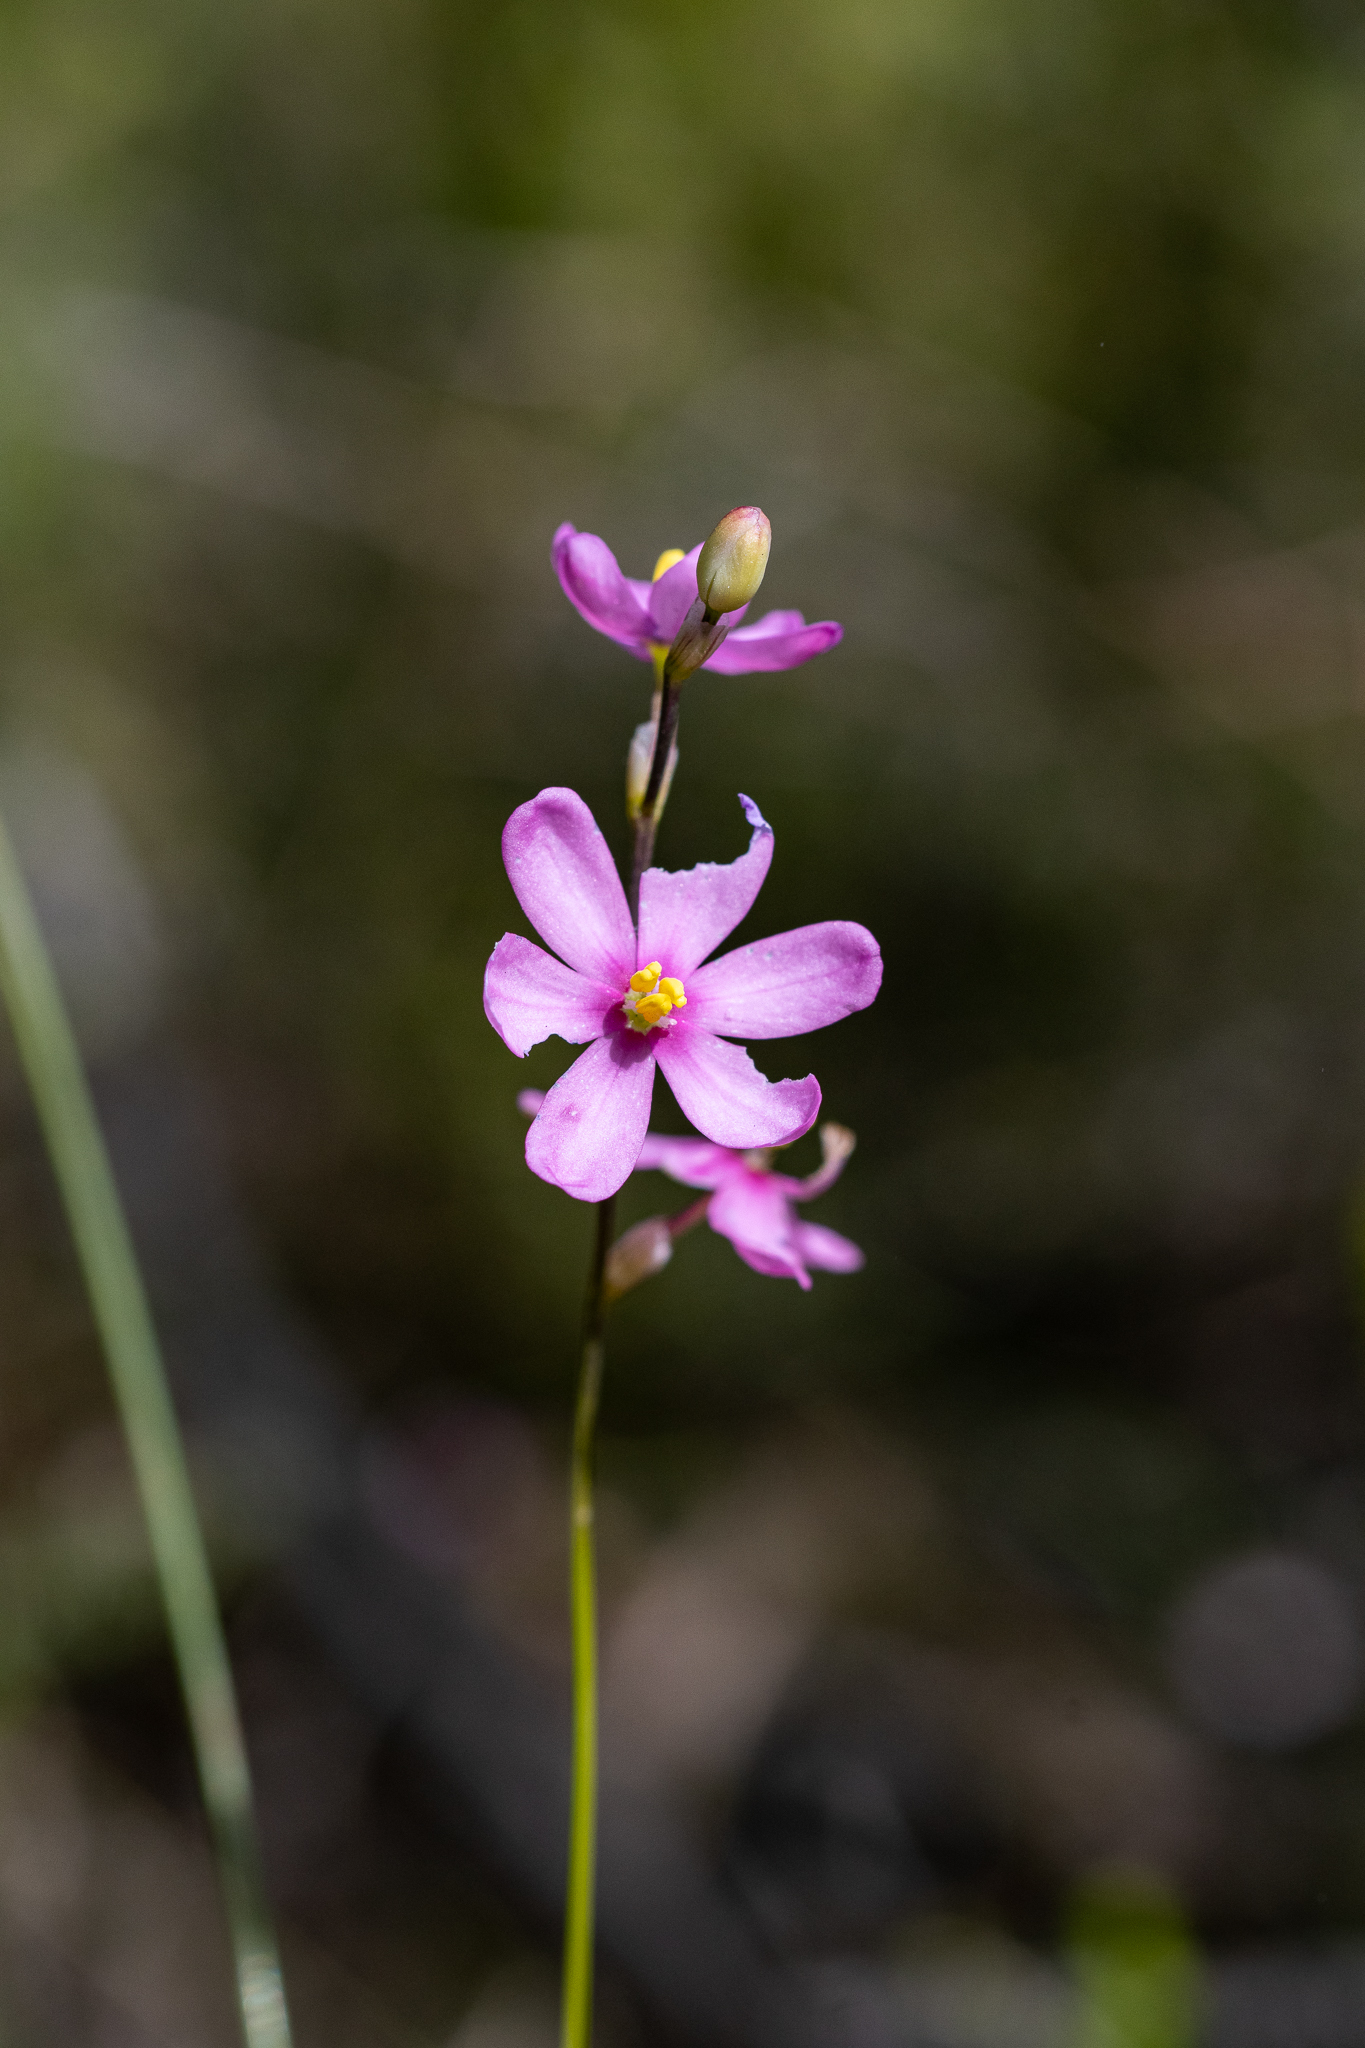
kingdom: Plantae
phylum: Tracheophyta
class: Liliopsida
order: Asparagales
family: Iridaceae
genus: Ixia
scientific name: Ixia stricta
